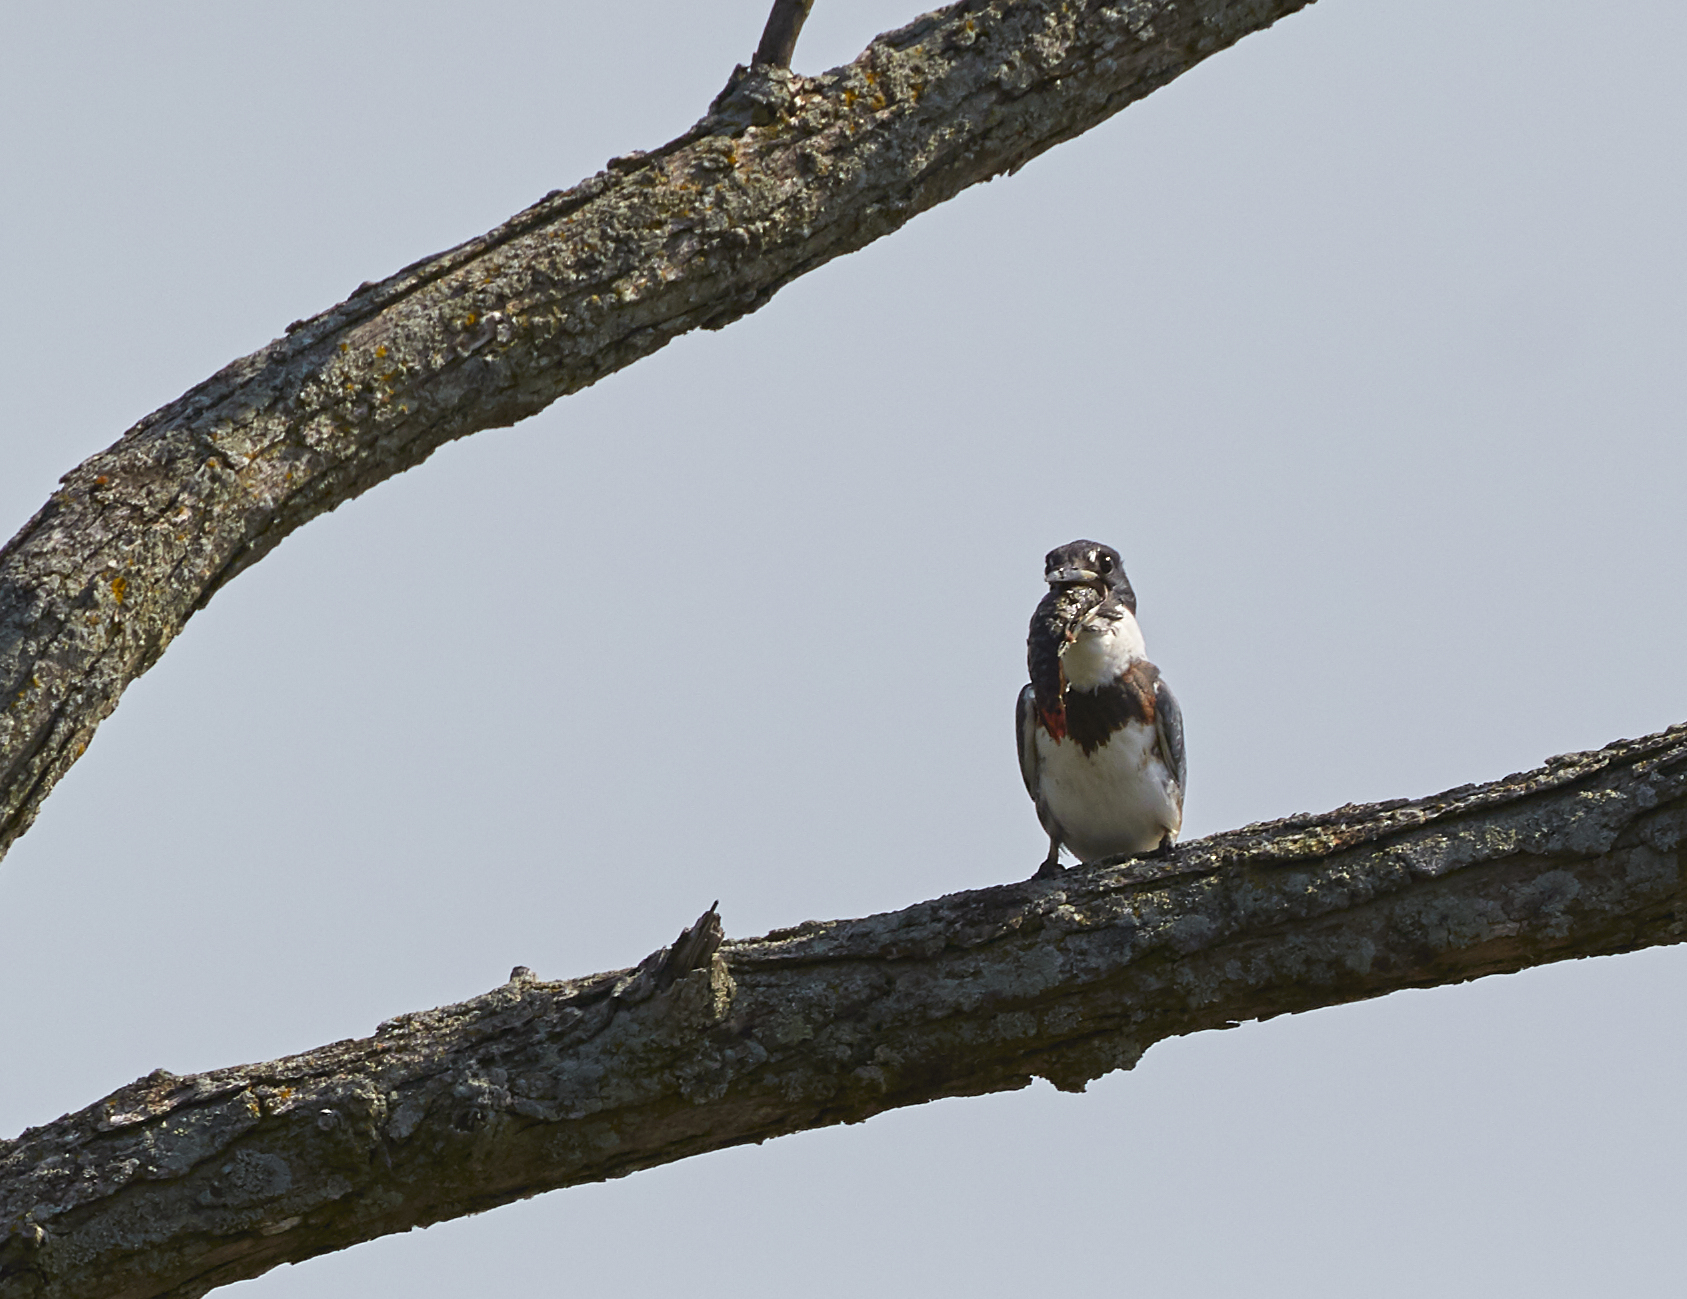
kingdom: Animalia
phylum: Chordata
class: Aves
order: Coraciiformes
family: Alcedinidae
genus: Megaceryle
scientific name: Megaceryle alcyon
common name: Belted kingfisher
